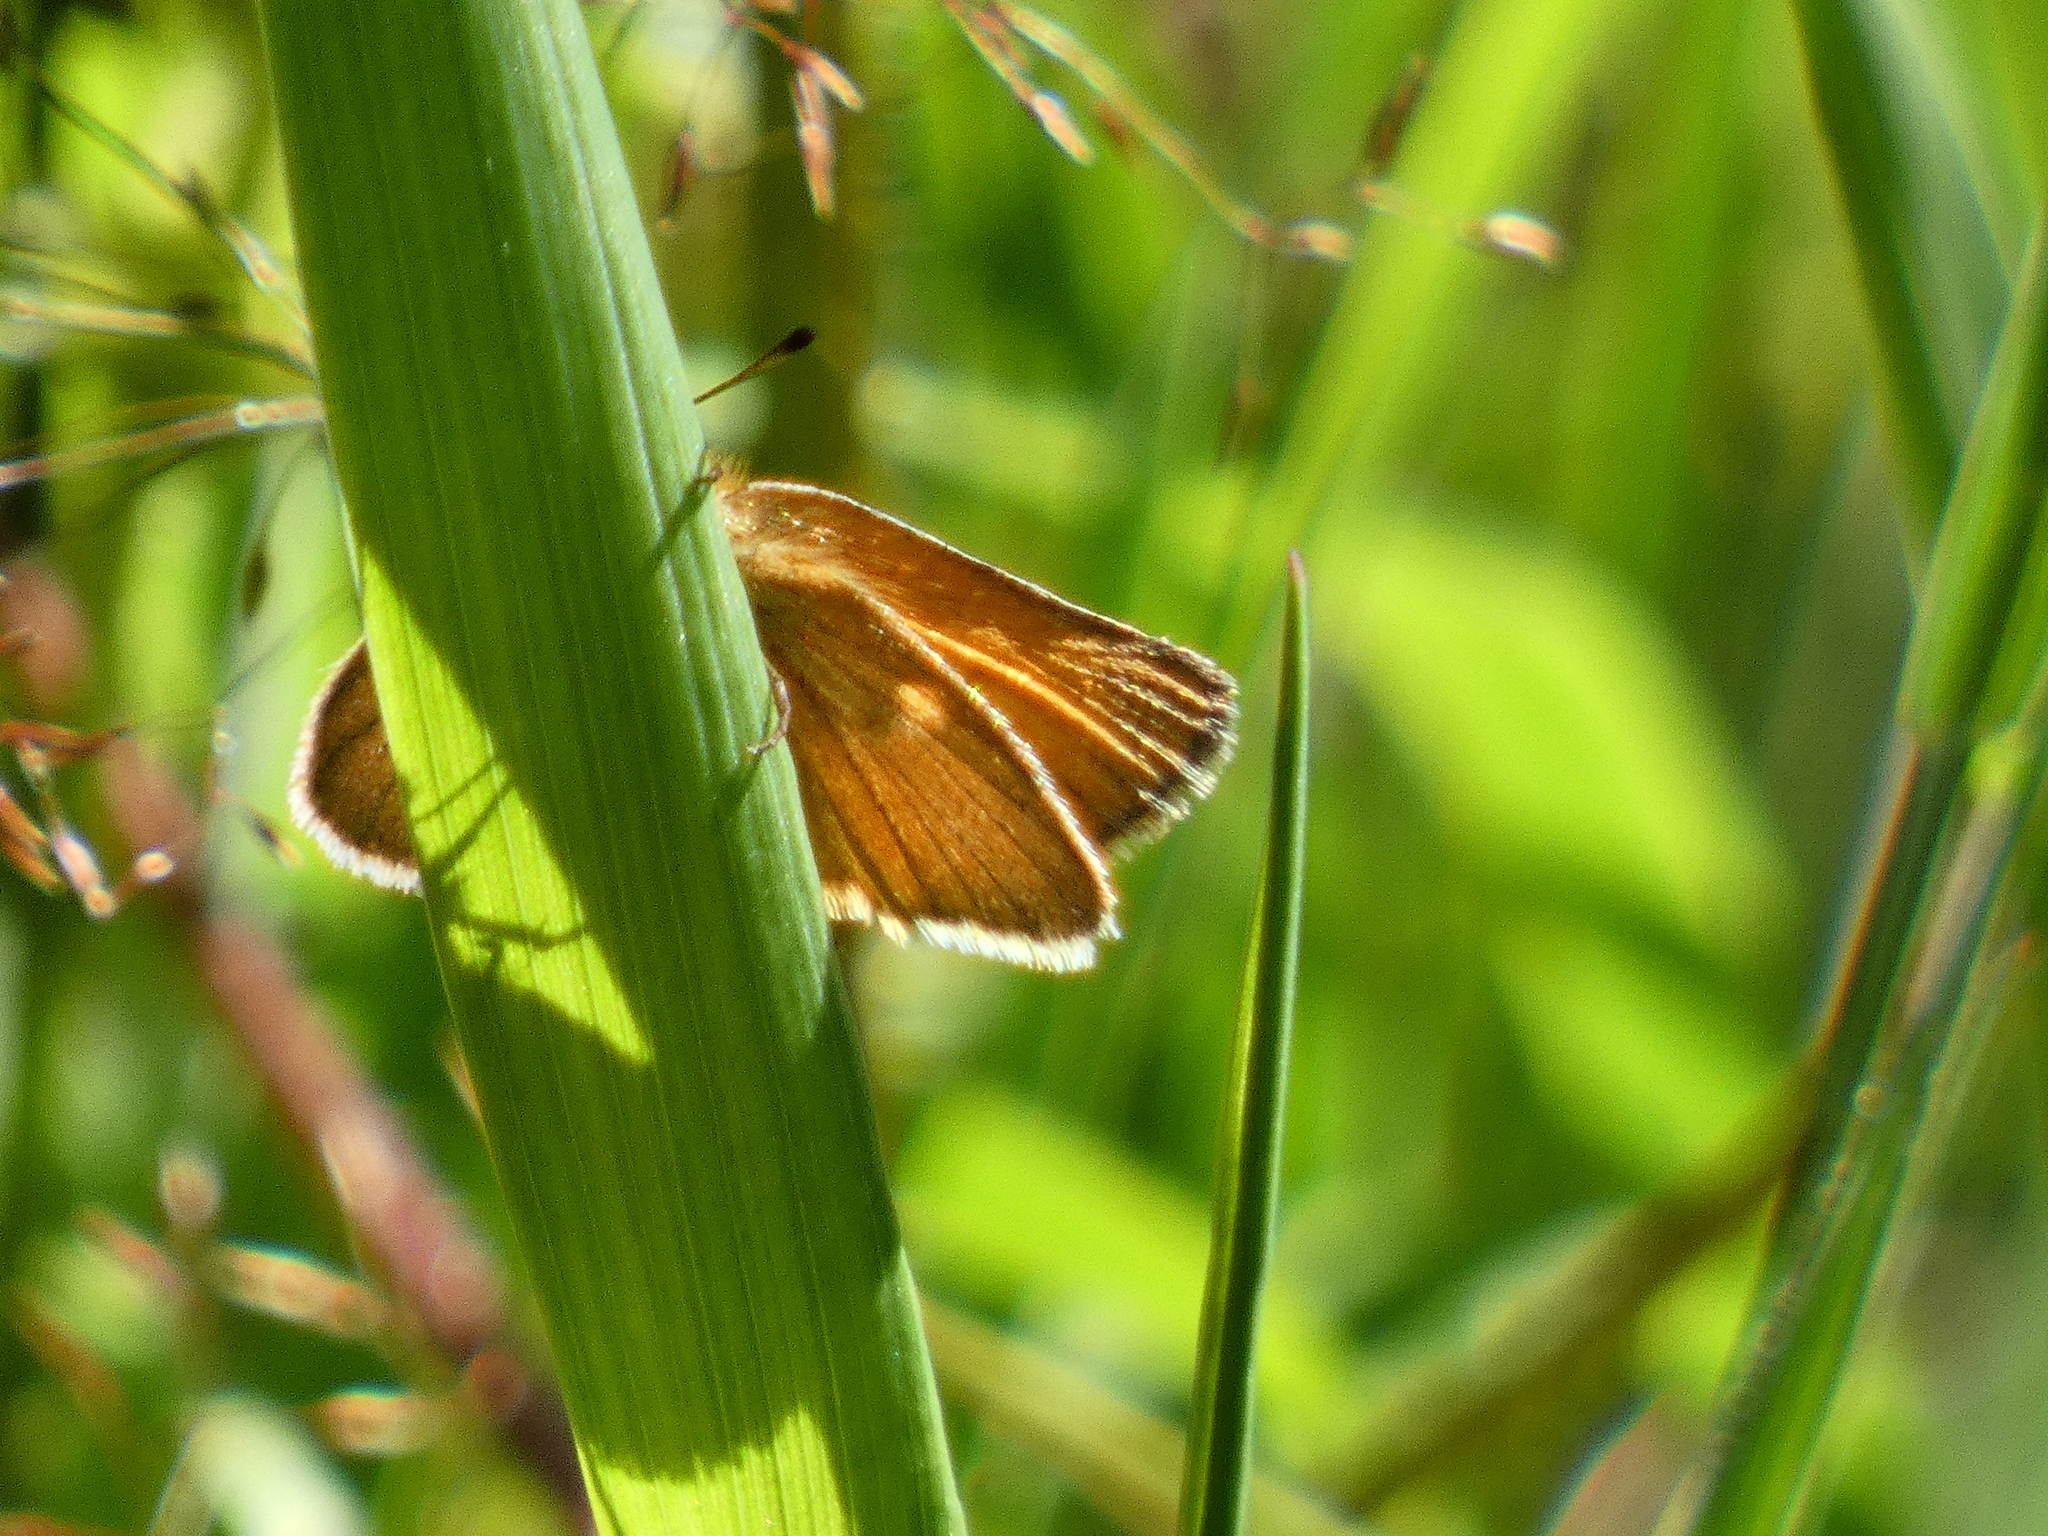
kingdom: Animalia
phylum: Arthropoda
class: Insecta
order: Lepidoptera
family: Hesperiidae
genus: Thymelicus
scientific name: Thymelicus lineola
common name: Essex skipper
